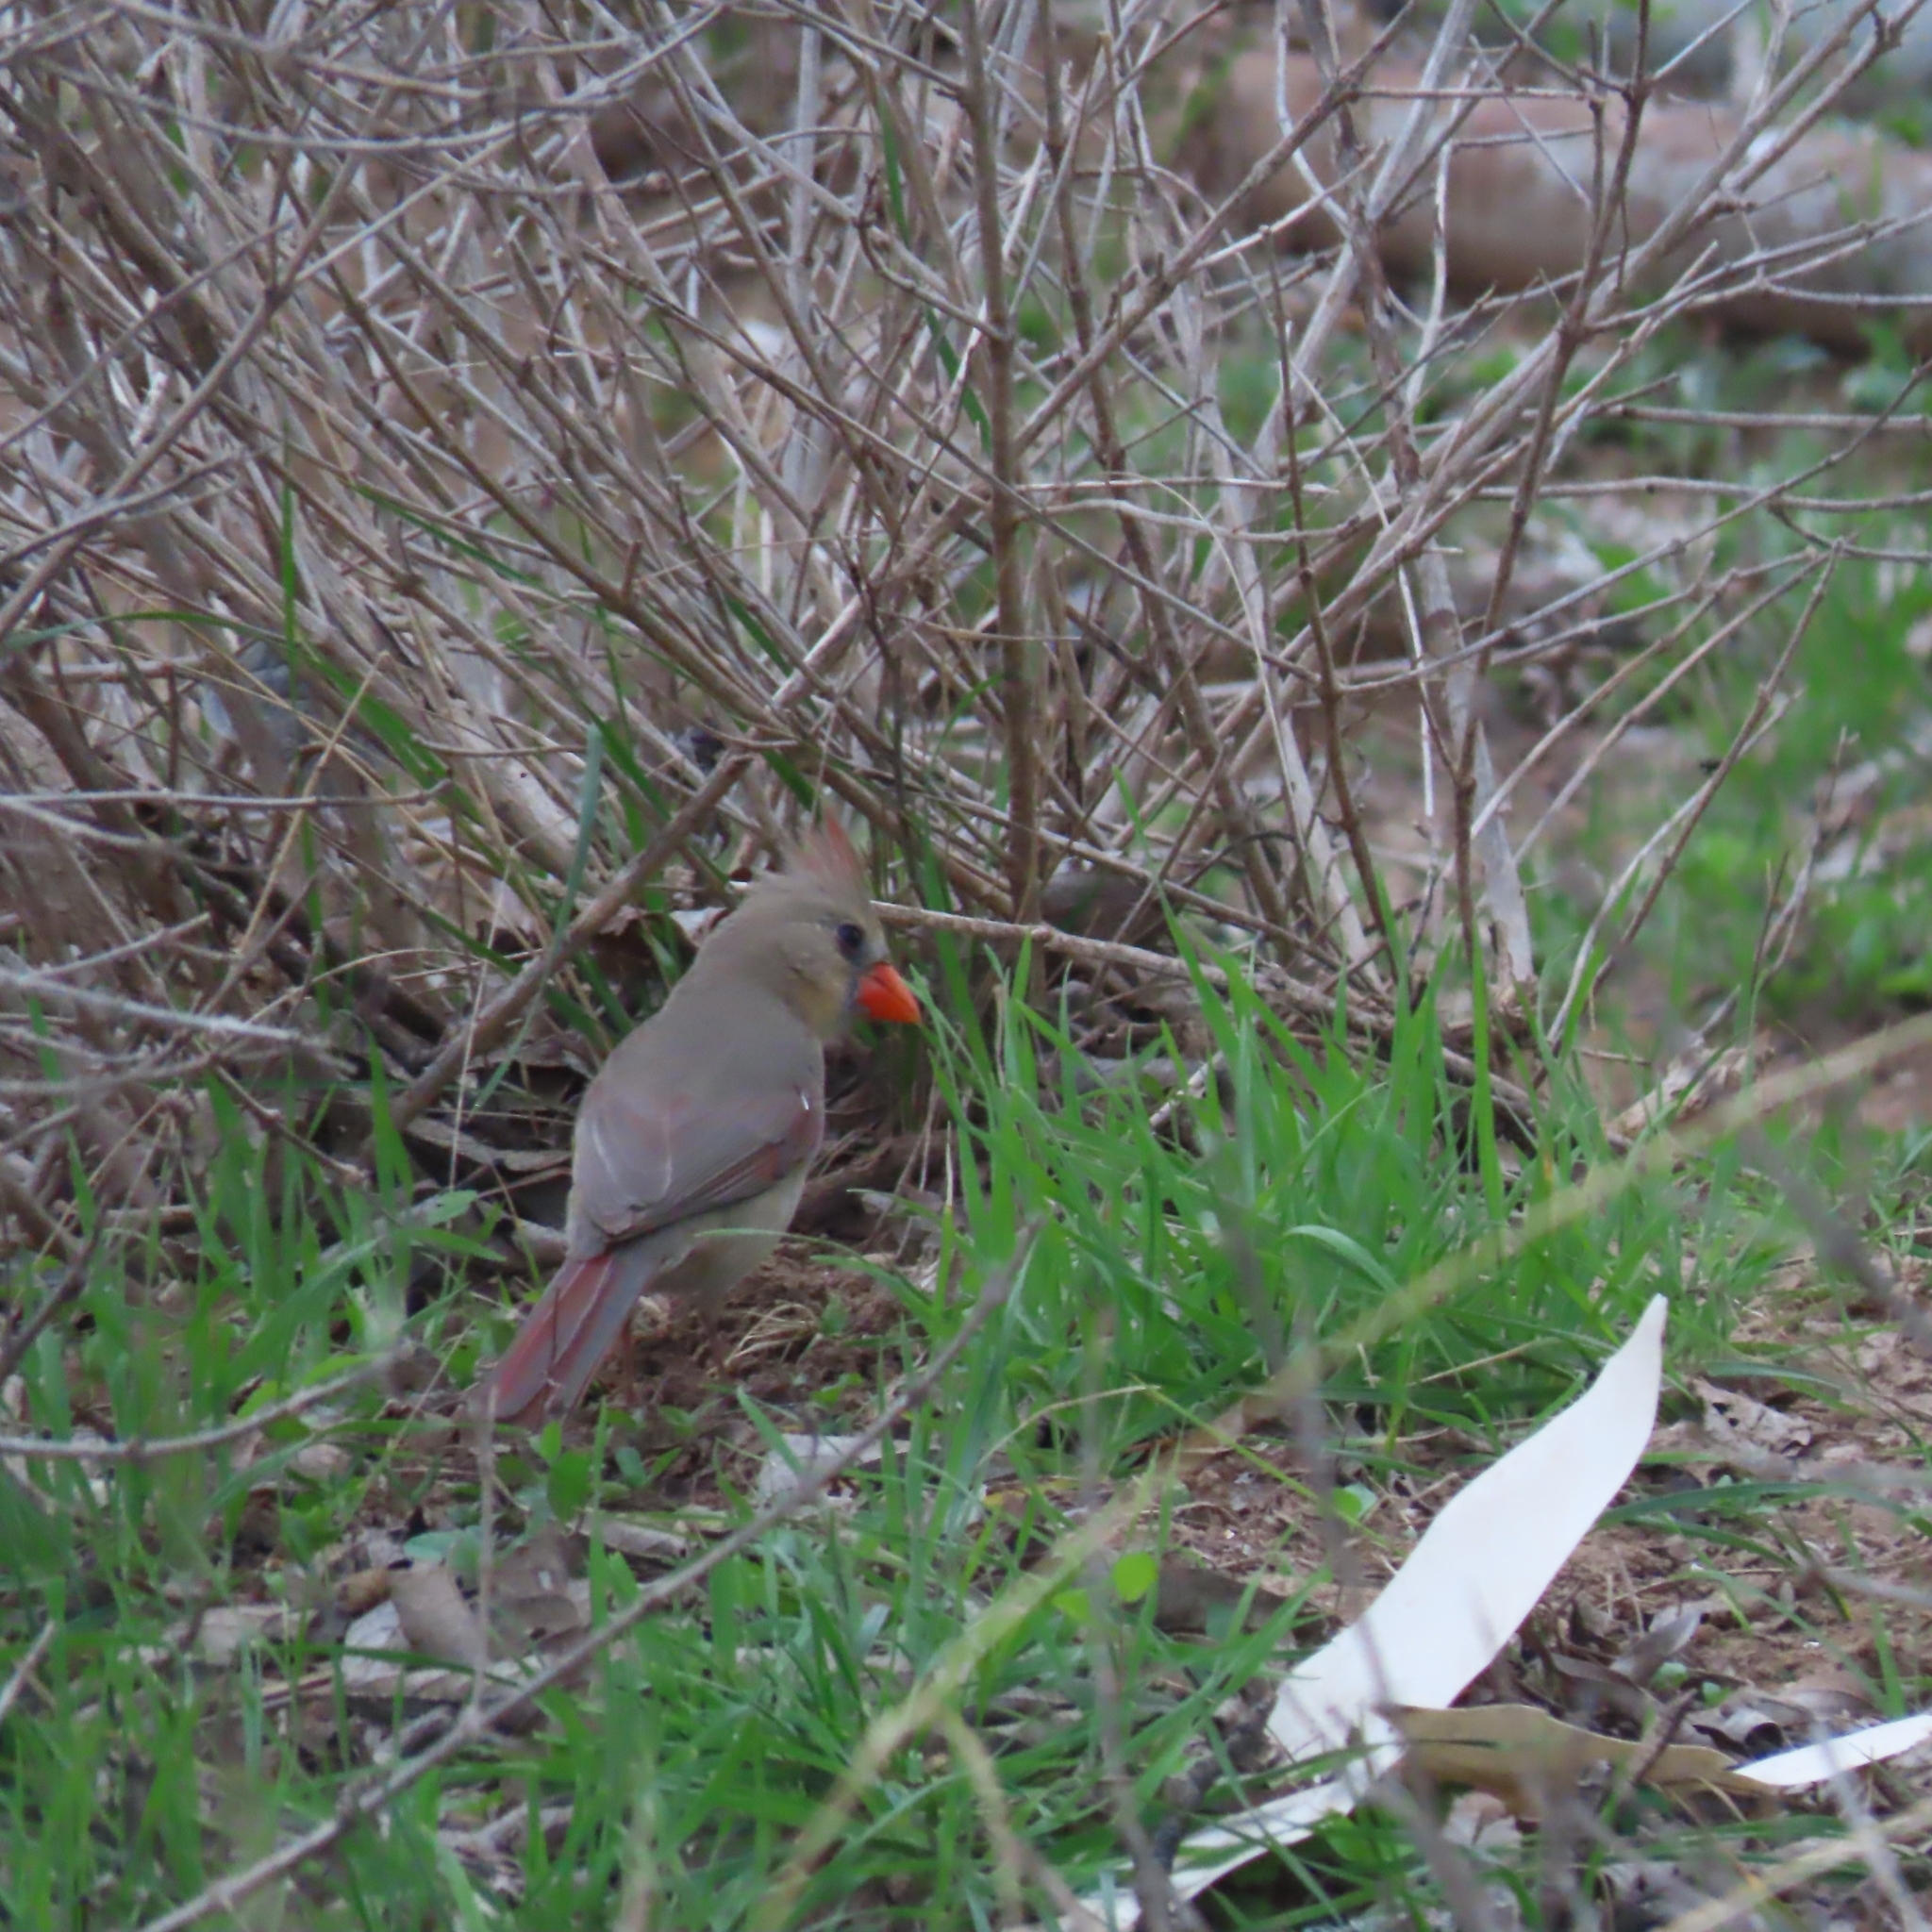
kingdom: Animalia
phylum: Chordata
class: Aves
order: Passeriformes
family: Cardinalidae
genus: Cardinalis
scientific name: Cardinalis cardinalis
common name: Northern cardinal
